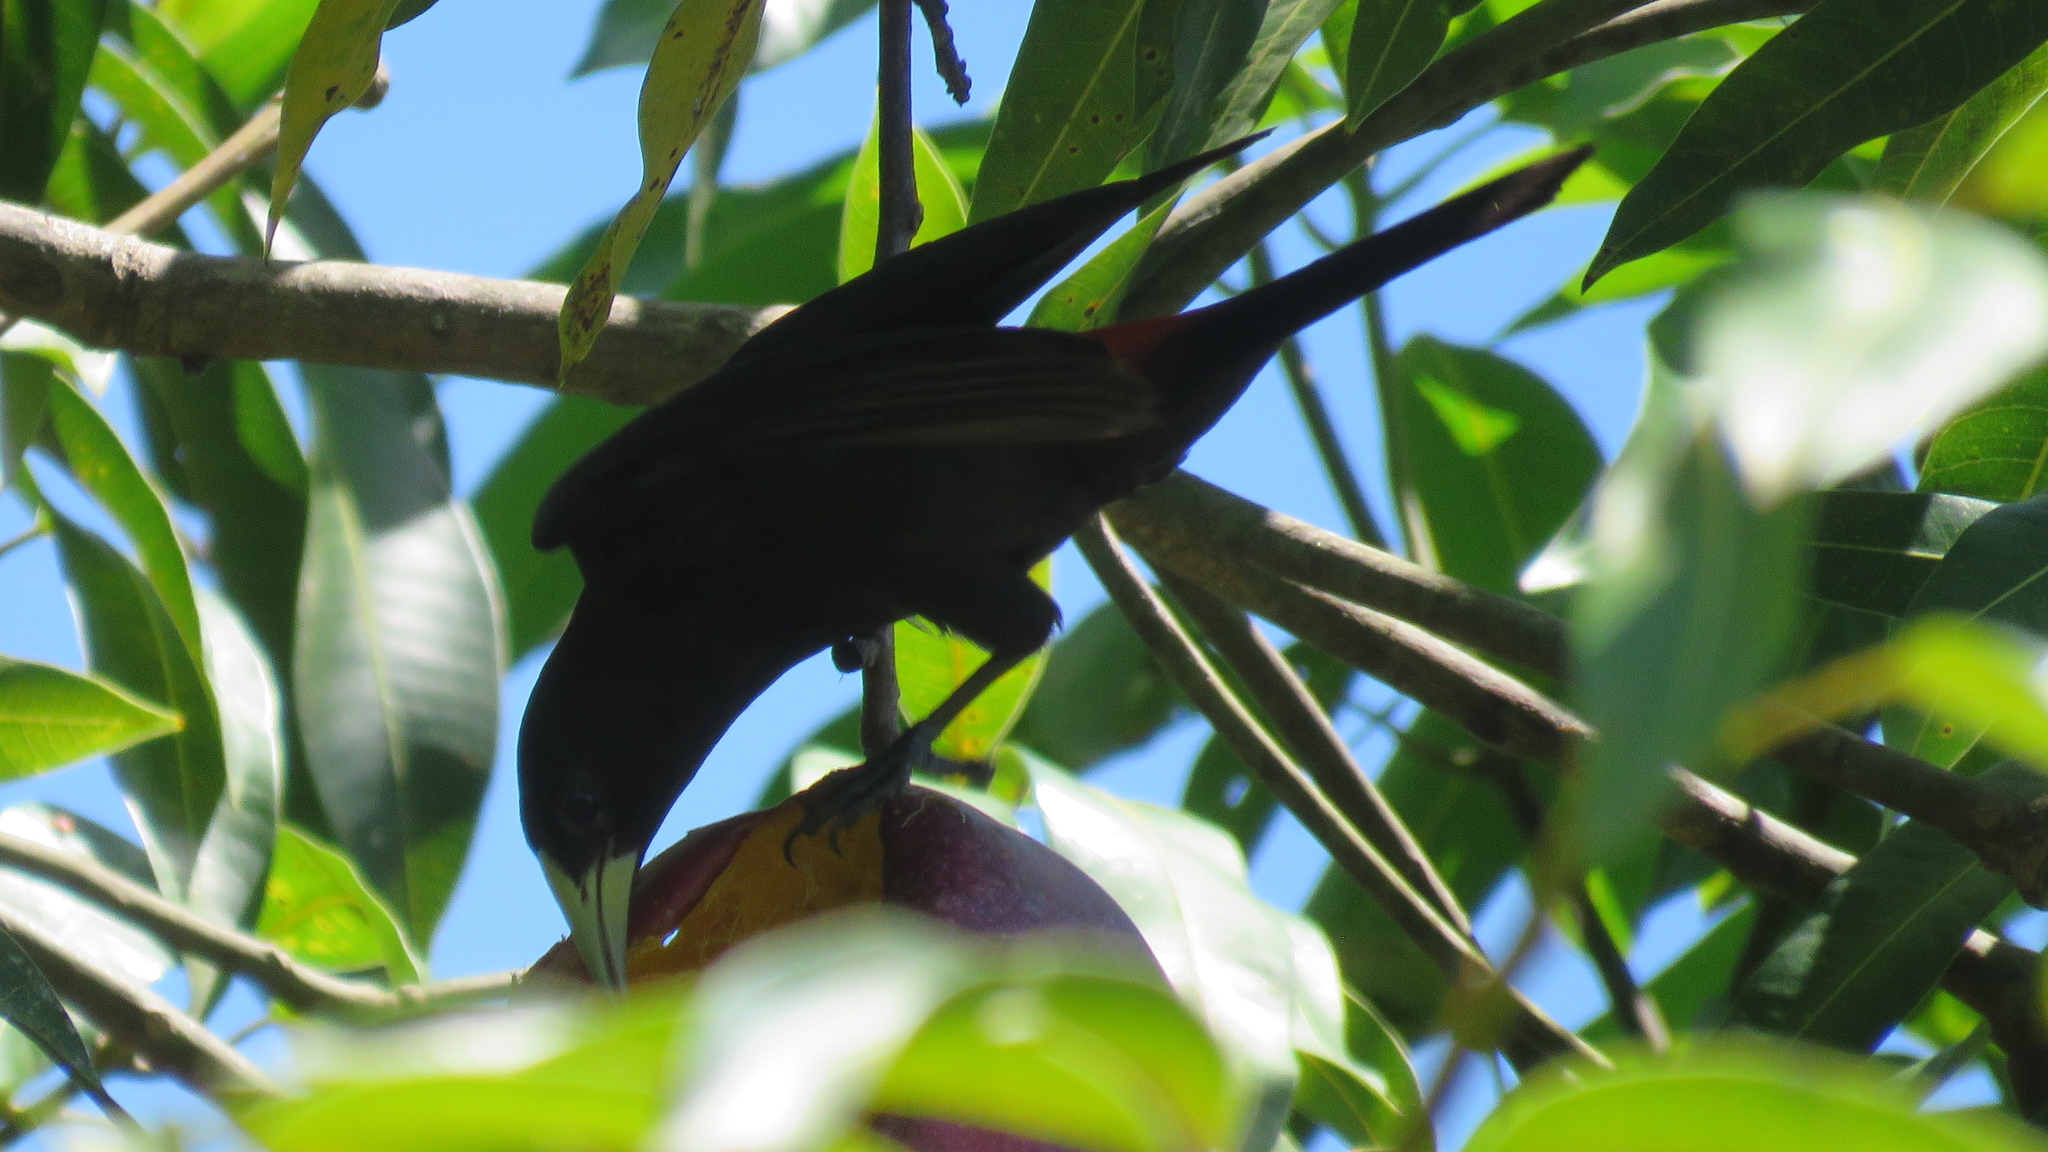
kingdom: Animalia
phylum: Chordata
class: Aves
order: Passeriformes
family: Icteridae
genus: Cacicus
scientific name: Cacicus haemorrhous
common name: Red-rumped cacique
